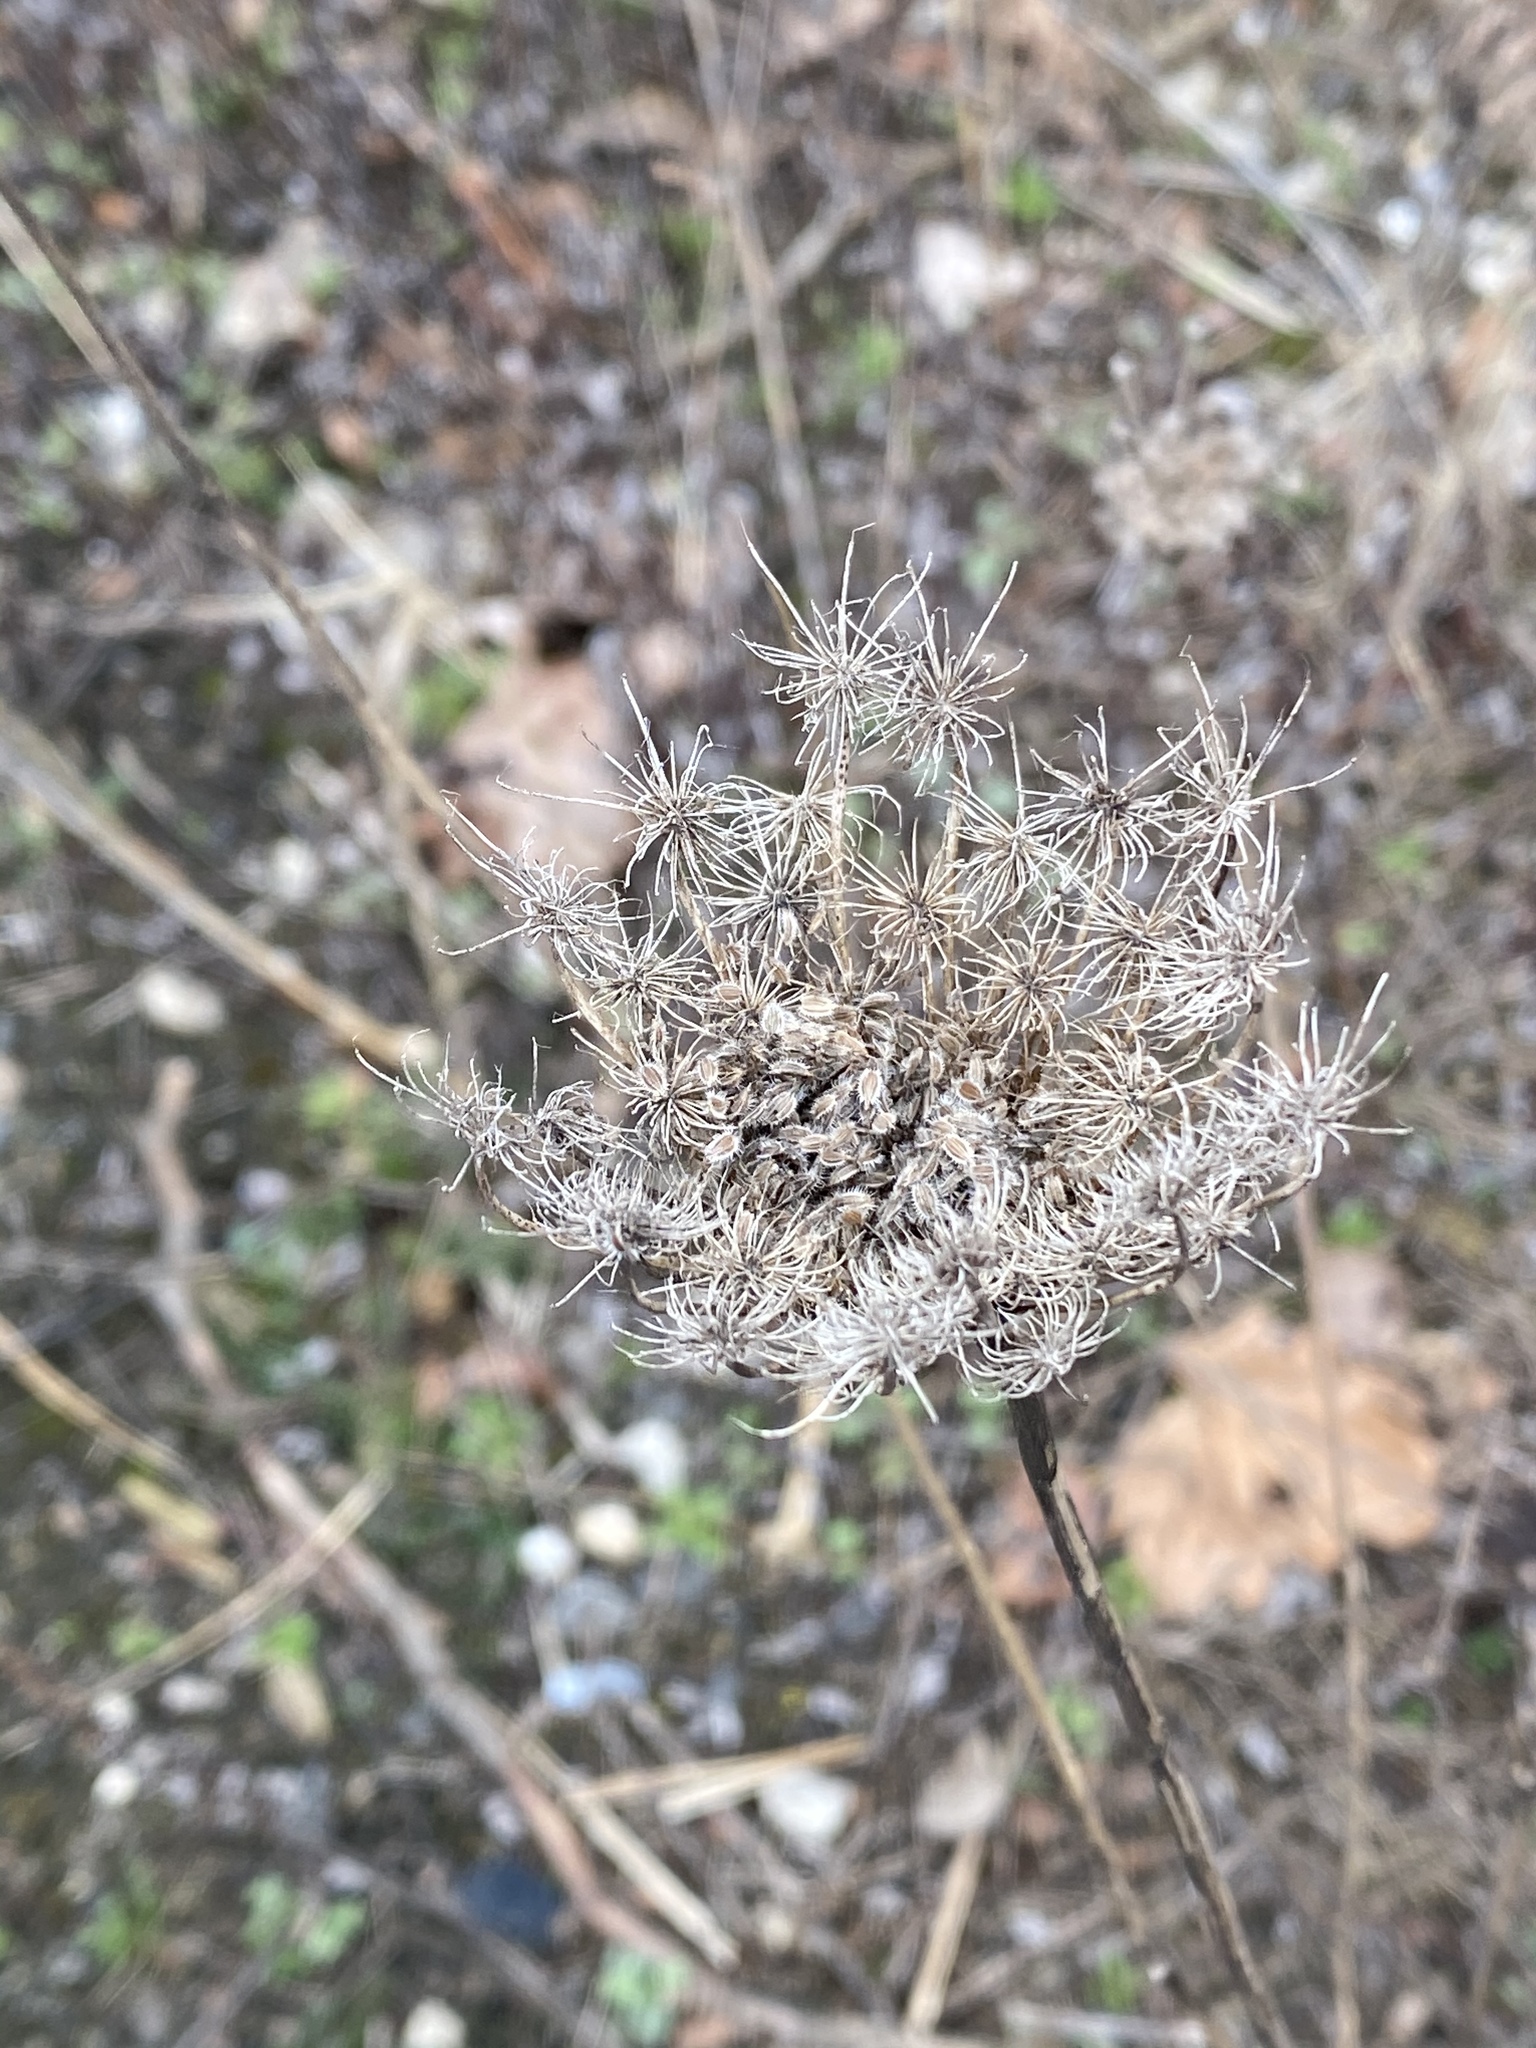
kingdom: Plantae
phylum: Tracheophyta
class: Magnoliopsida
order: Apiales
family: Apiaceae
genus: Daucus
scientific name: Daucus carota
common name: Wild carrot
